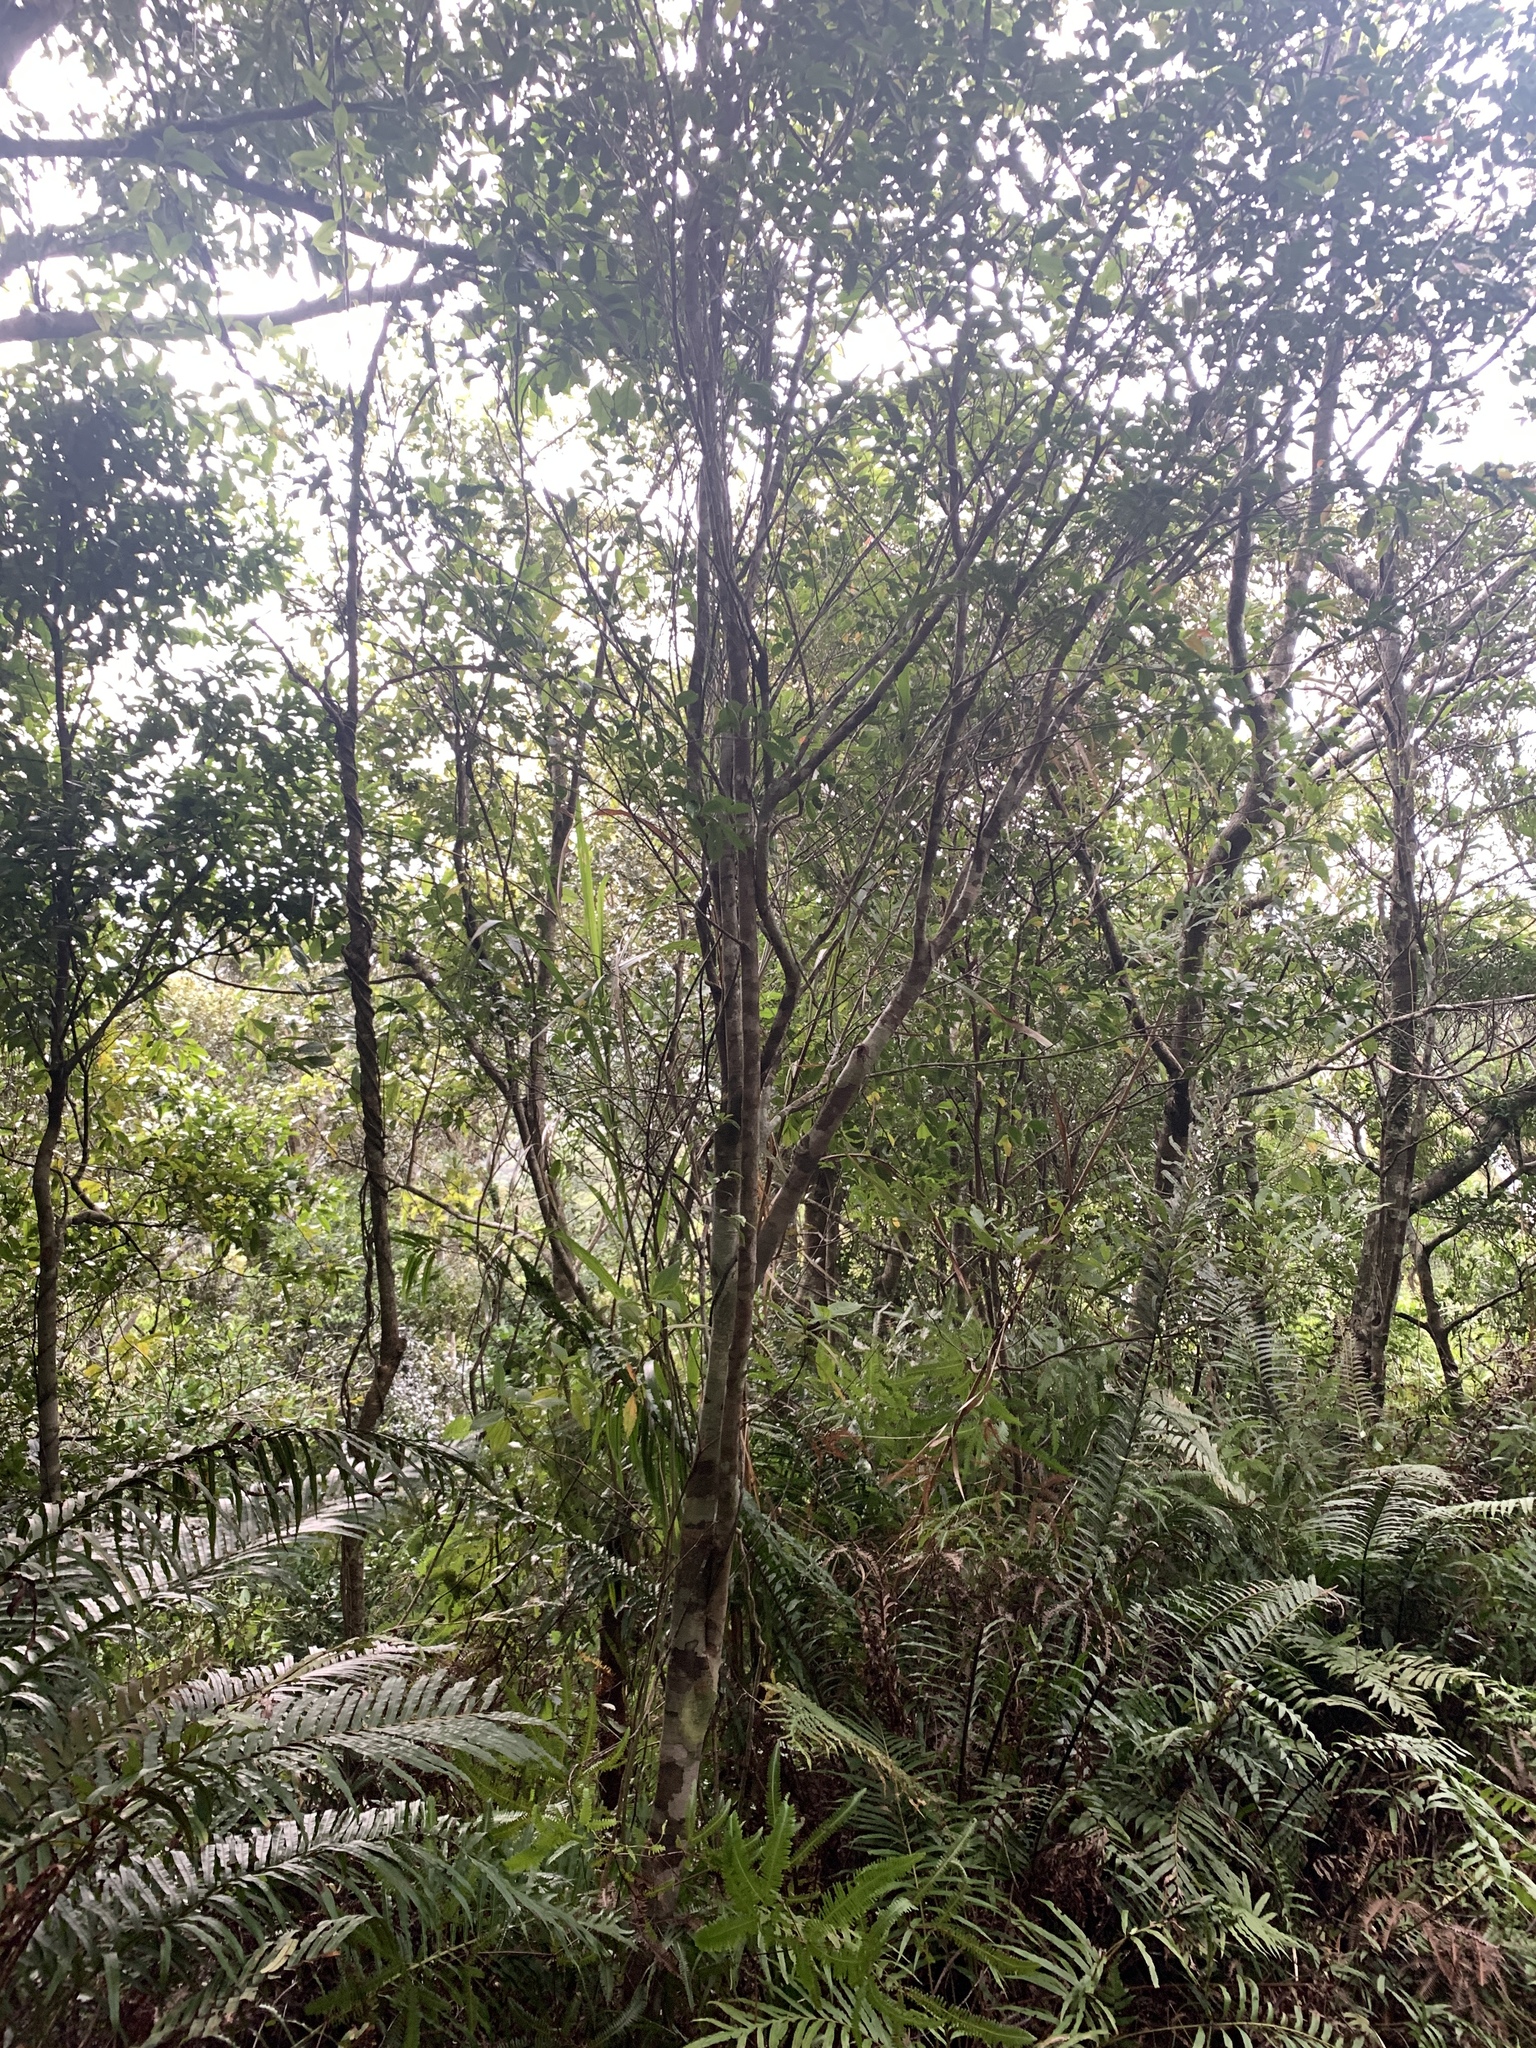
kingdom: Plantae
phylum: Tracheophyta
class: Magnoliopsida
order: Fagales
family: Fagaceae
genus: Castanopsis
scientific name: Castanopsis carlesii
